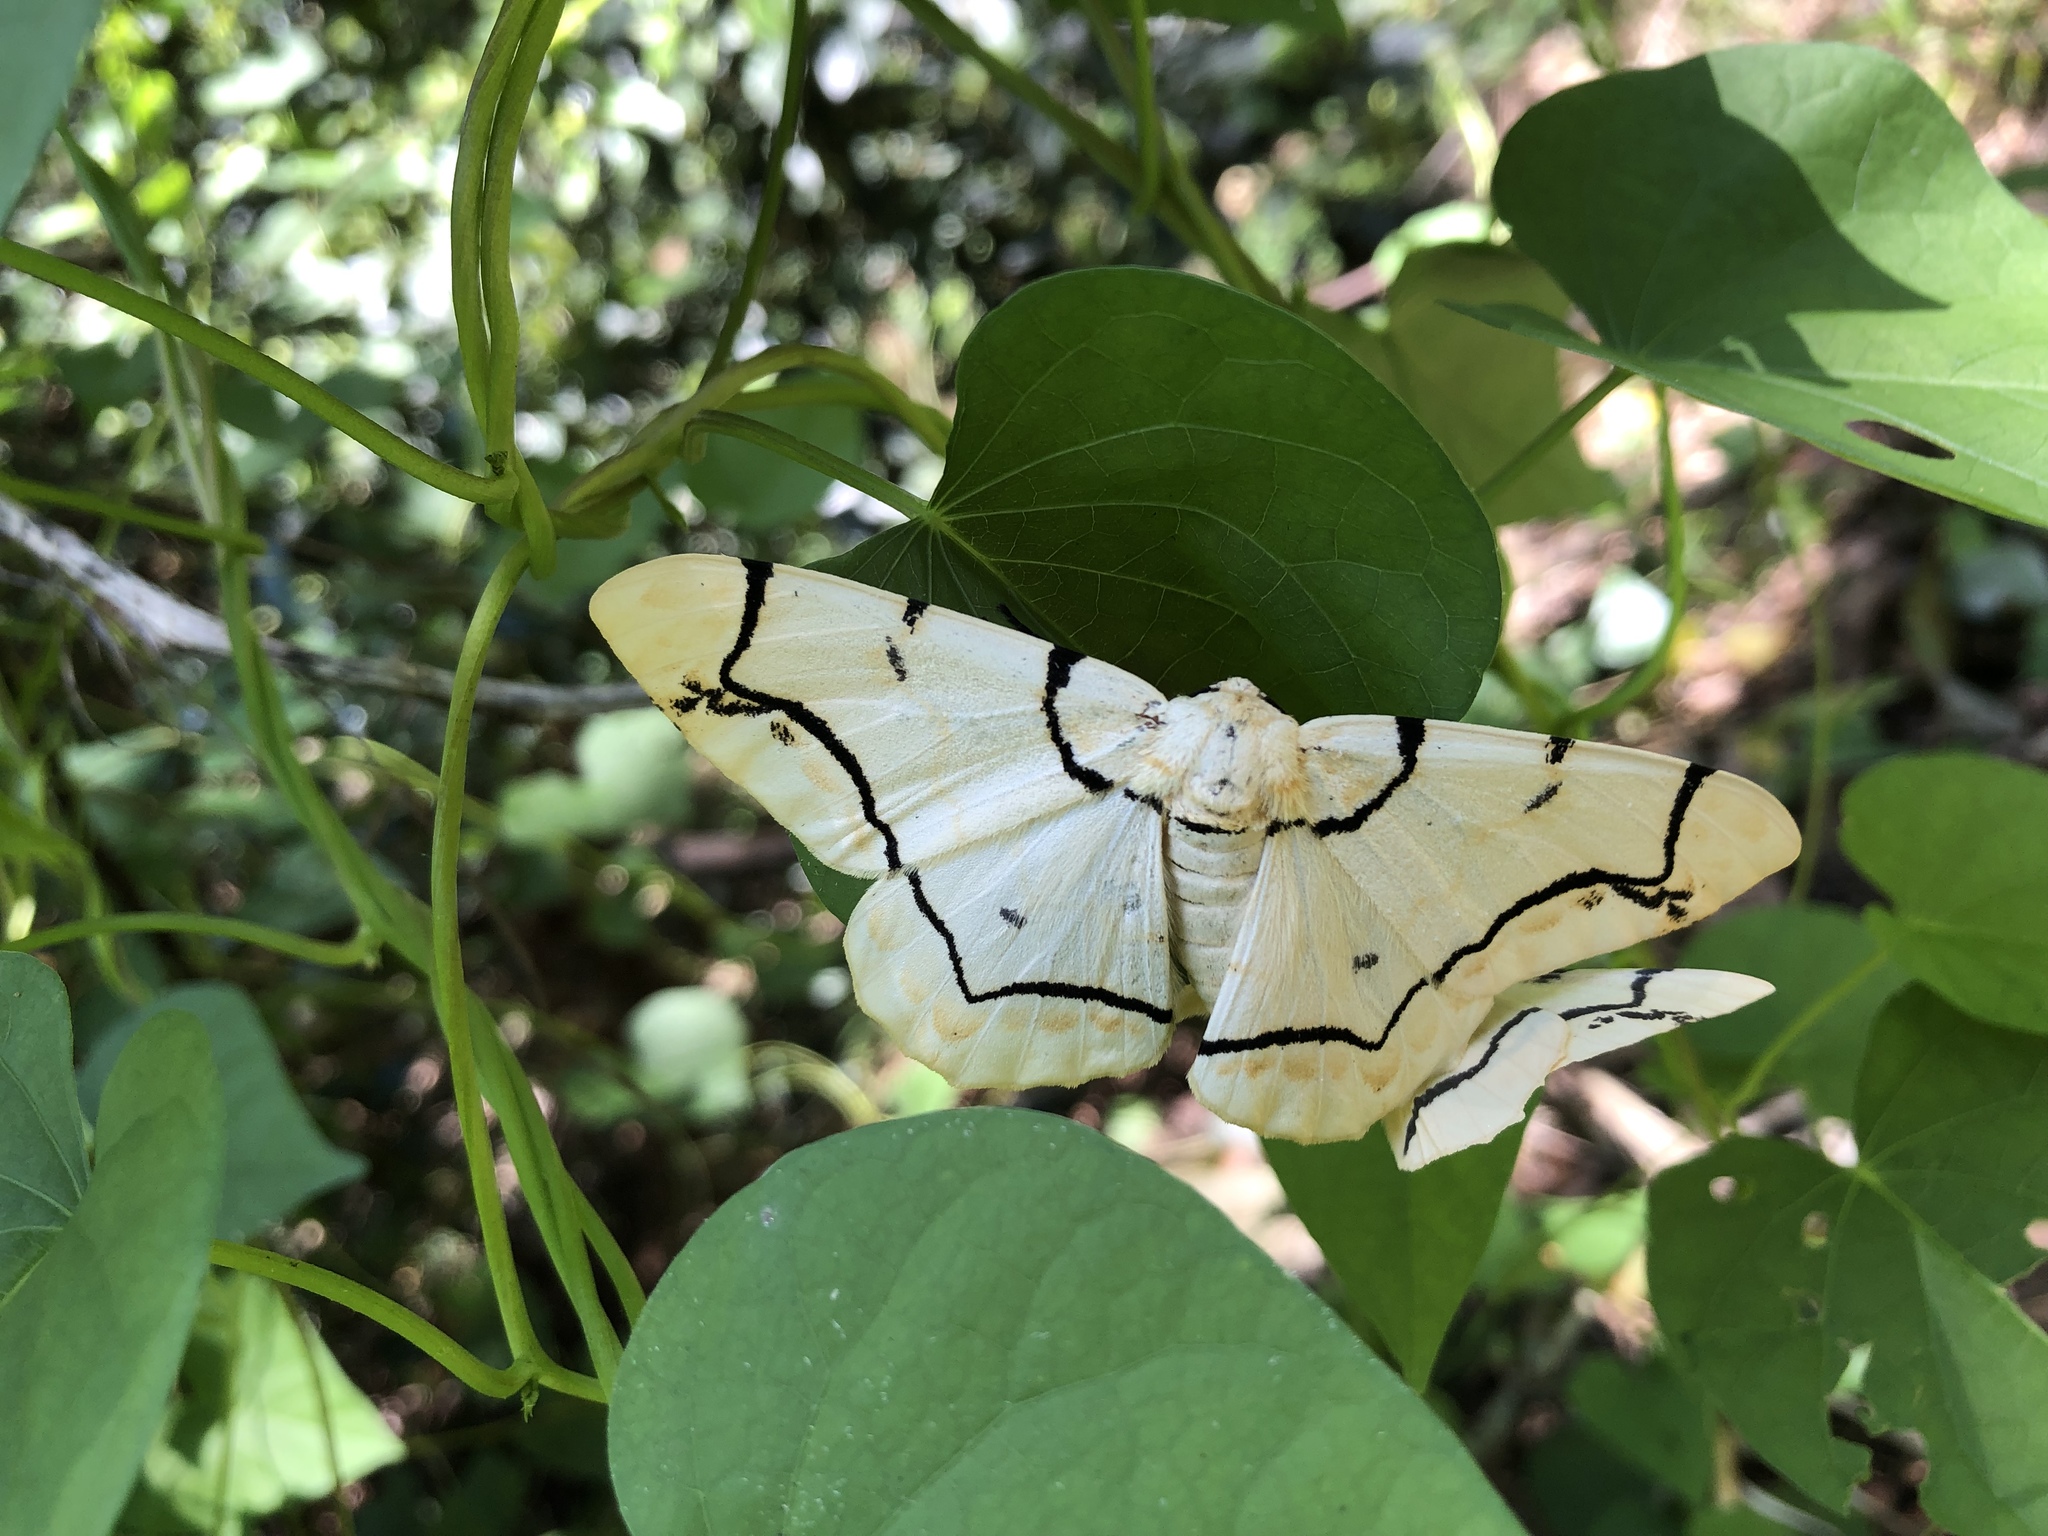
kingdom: Animalia
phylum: Arthropoda
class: Insecta
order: Lepidoptera
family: Geometridae
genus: Biston
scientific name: Biston perclara
